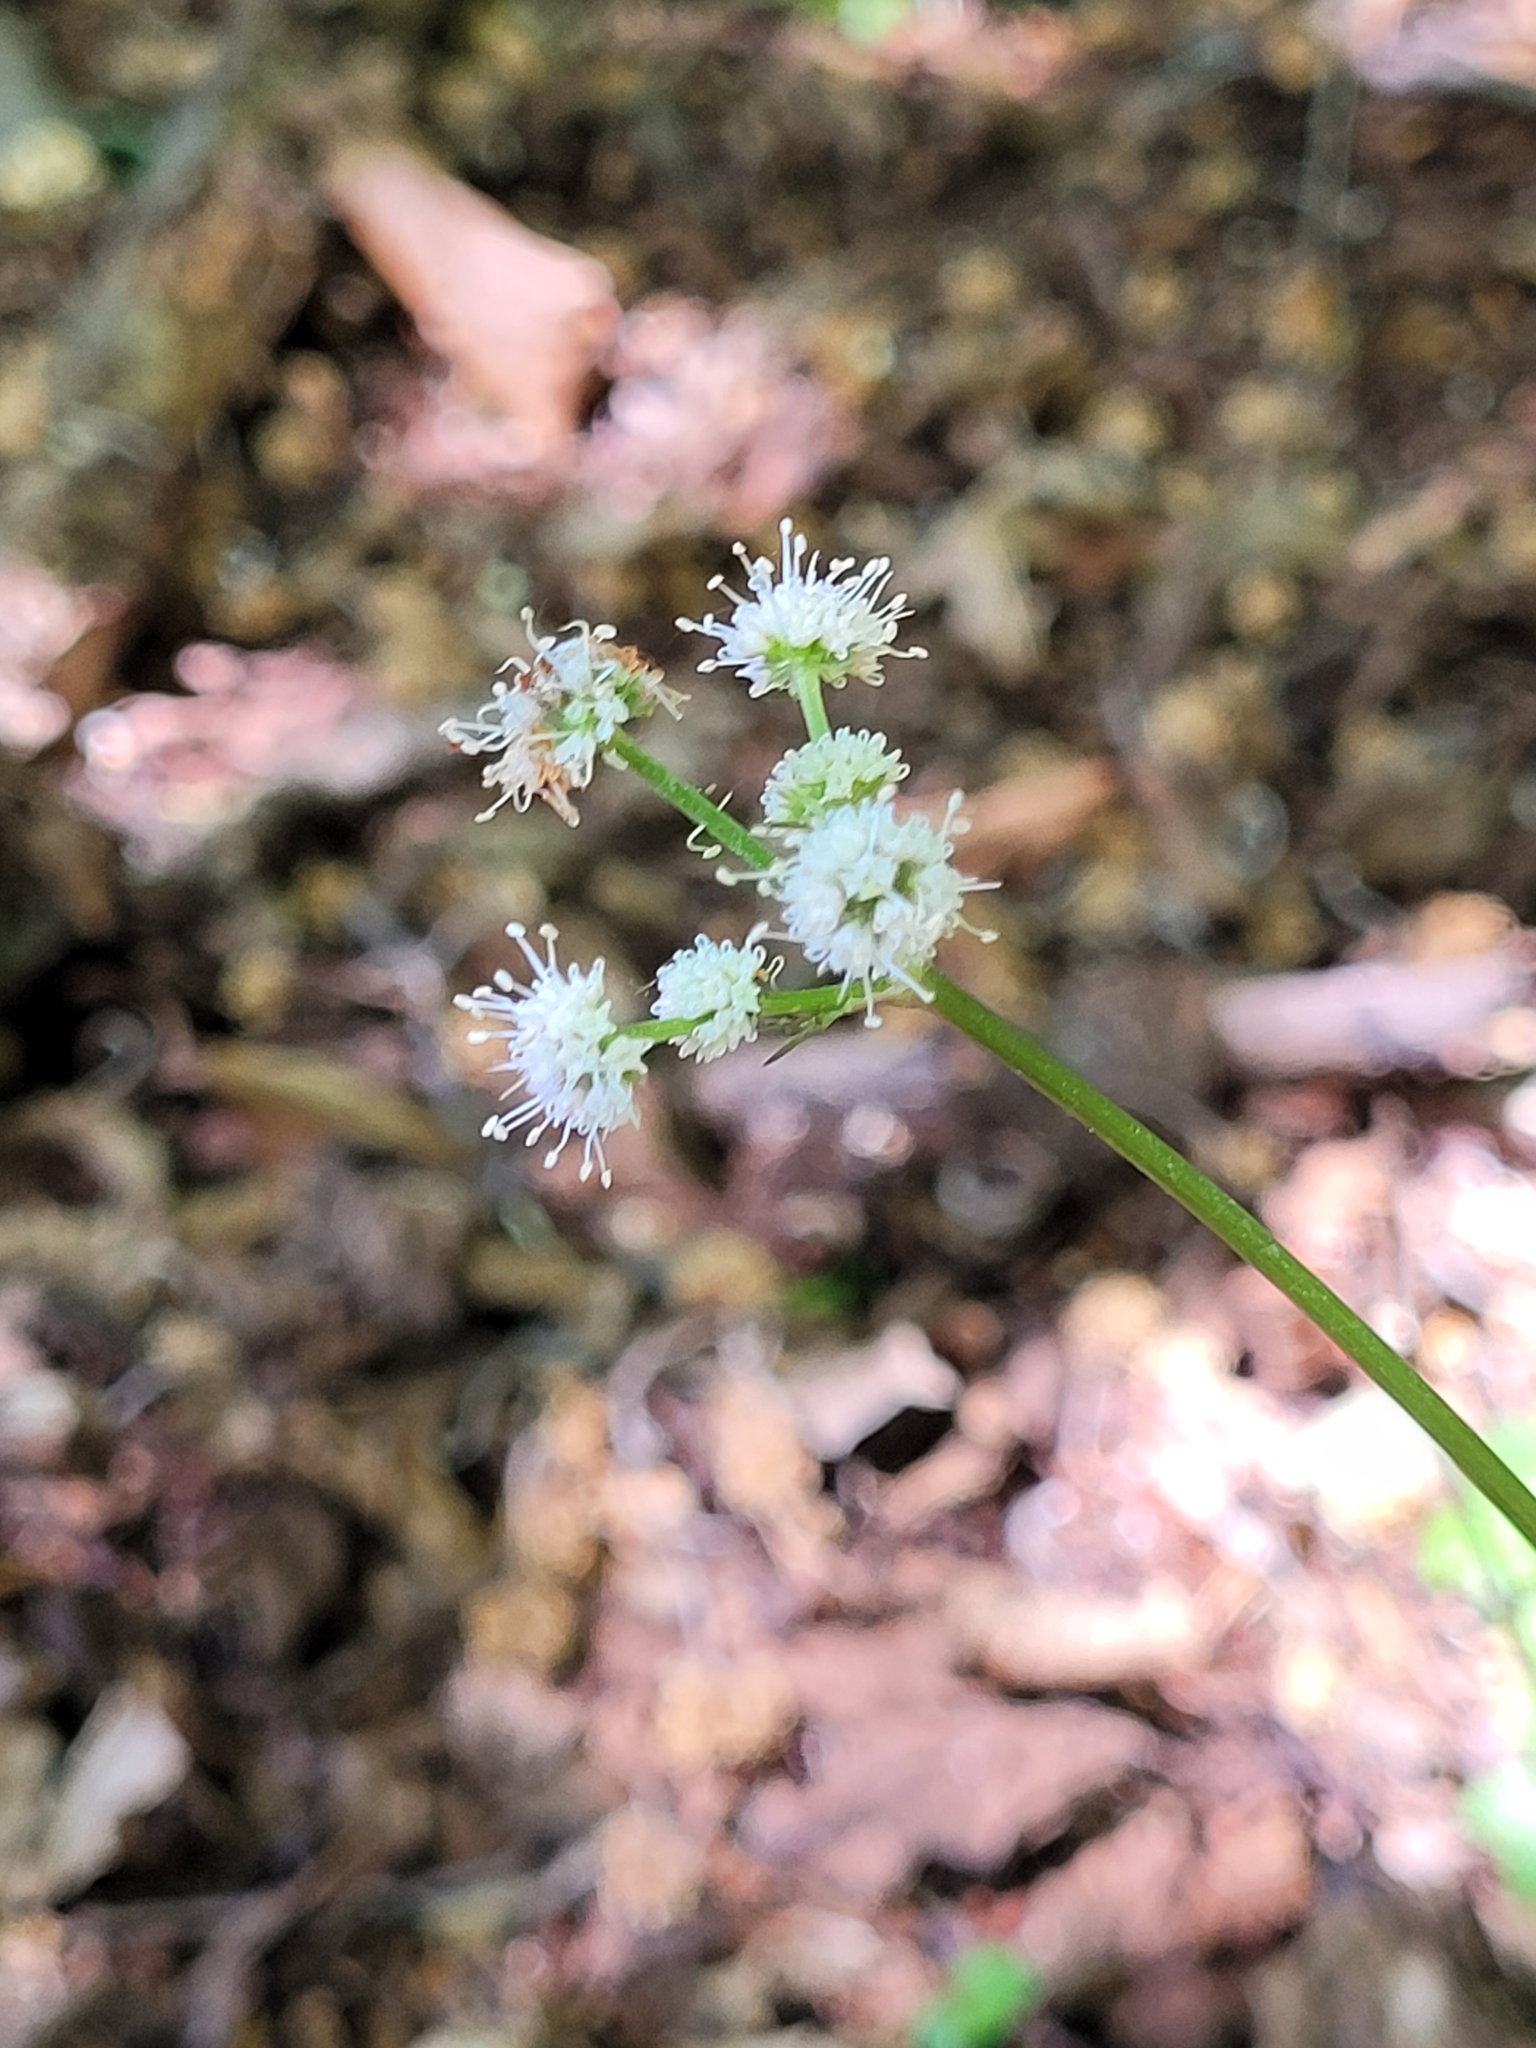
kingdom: Plantae
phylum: Tracheophyta
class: Magnoliopsida
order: Apiales
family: Apiaceae
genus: Sanicula
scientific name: Sanicula europaea
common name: Sanicle
